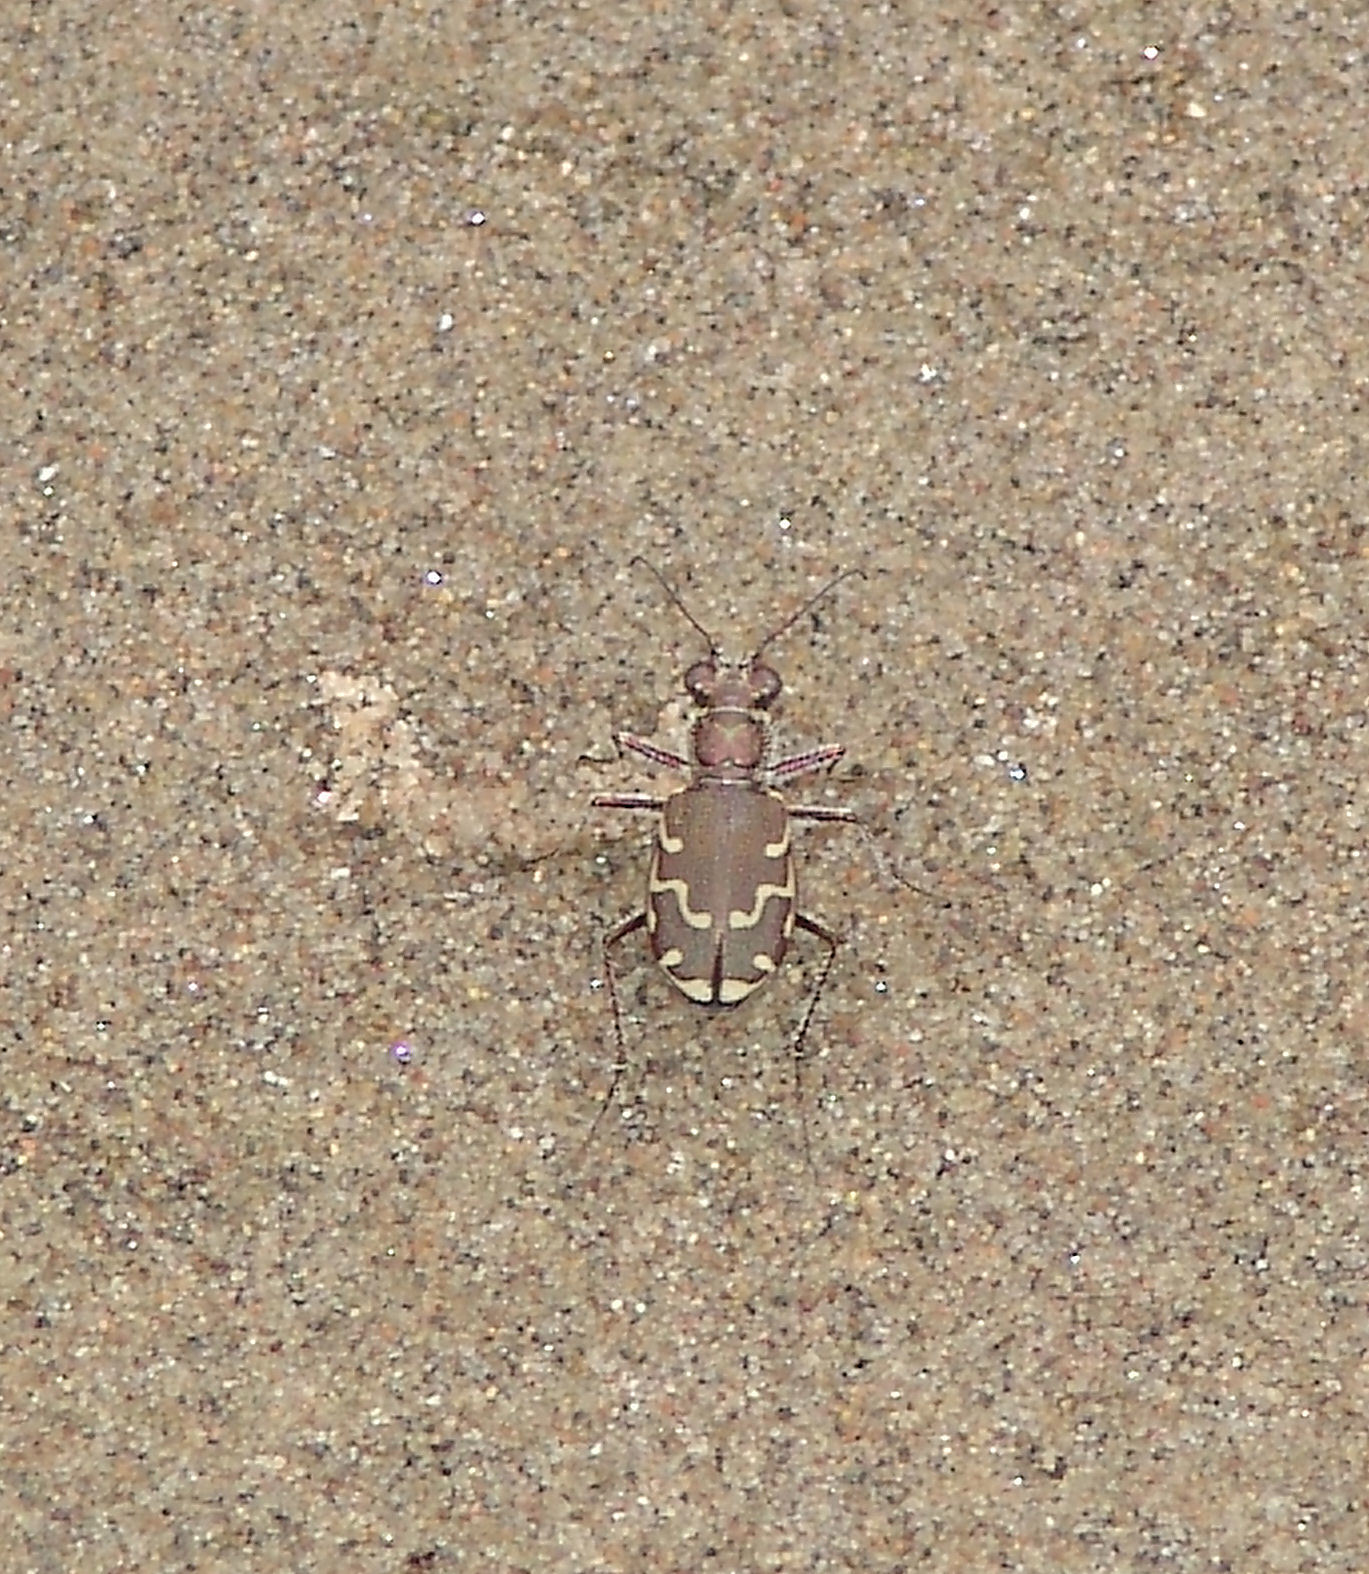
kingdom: Animalia
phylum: Arthropoda
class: Insecta
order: Coleoptera
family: Carabidae
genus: Cicindela
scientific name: Cicindela repanda
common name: Bronzed tiger beetle
